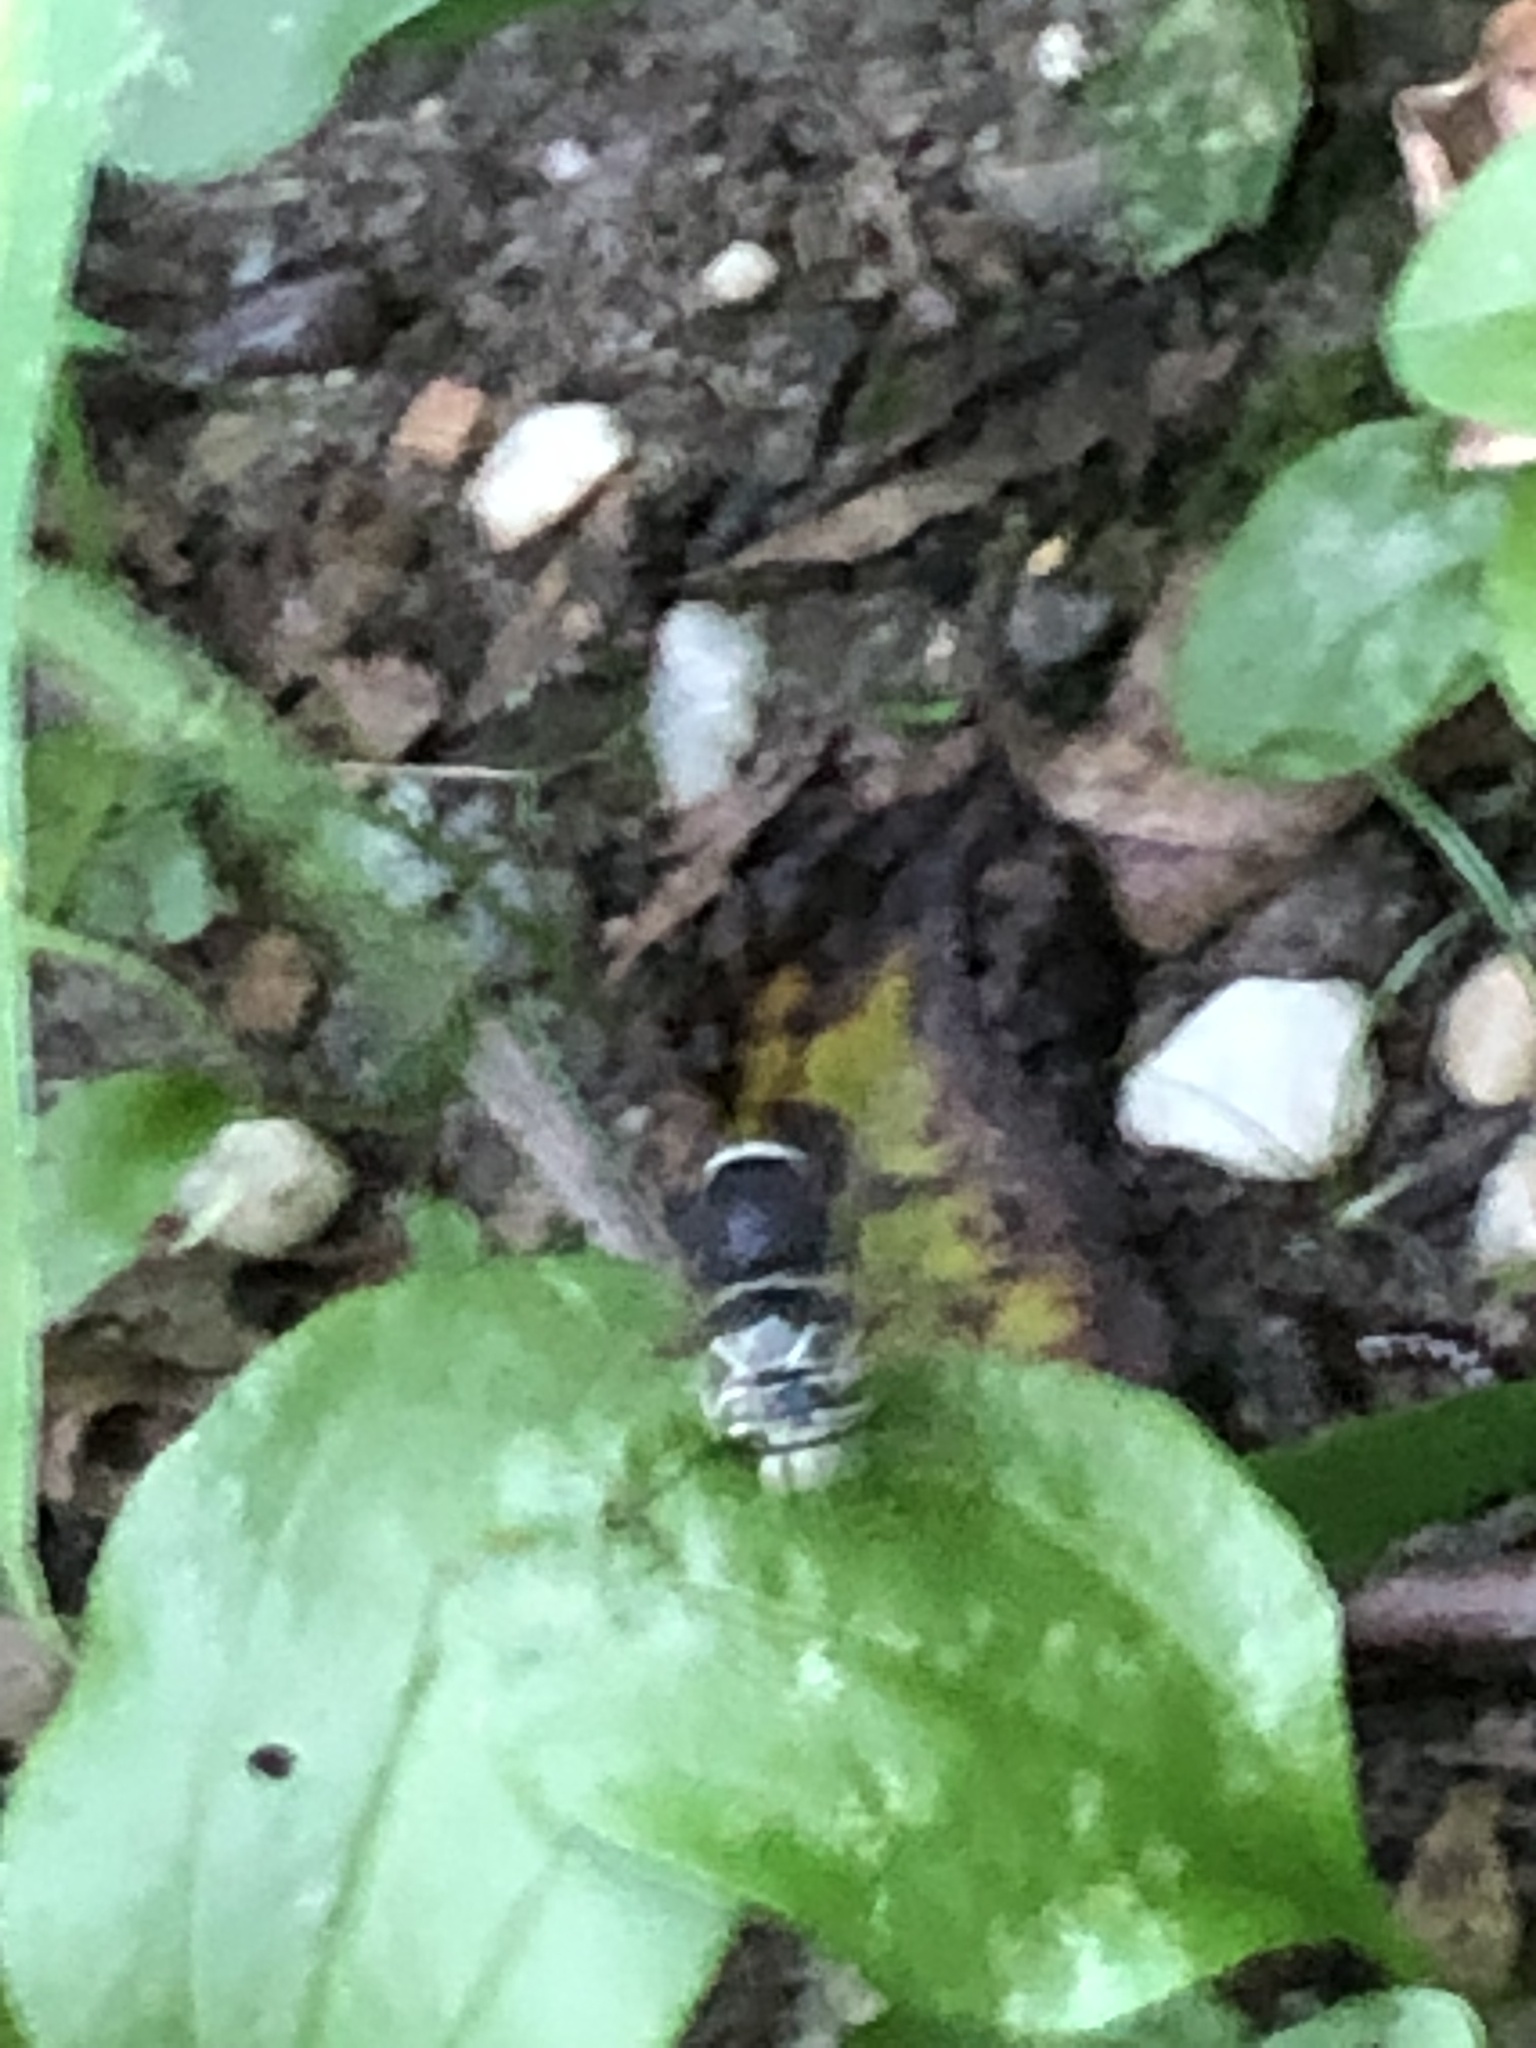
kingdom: Animalia
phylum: Arthropoda
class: Insecta
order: Hymenoptera
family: Vespidae
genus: Dolichovespula
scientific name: Dolichovespula maculata
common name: Bald-faced hornet
